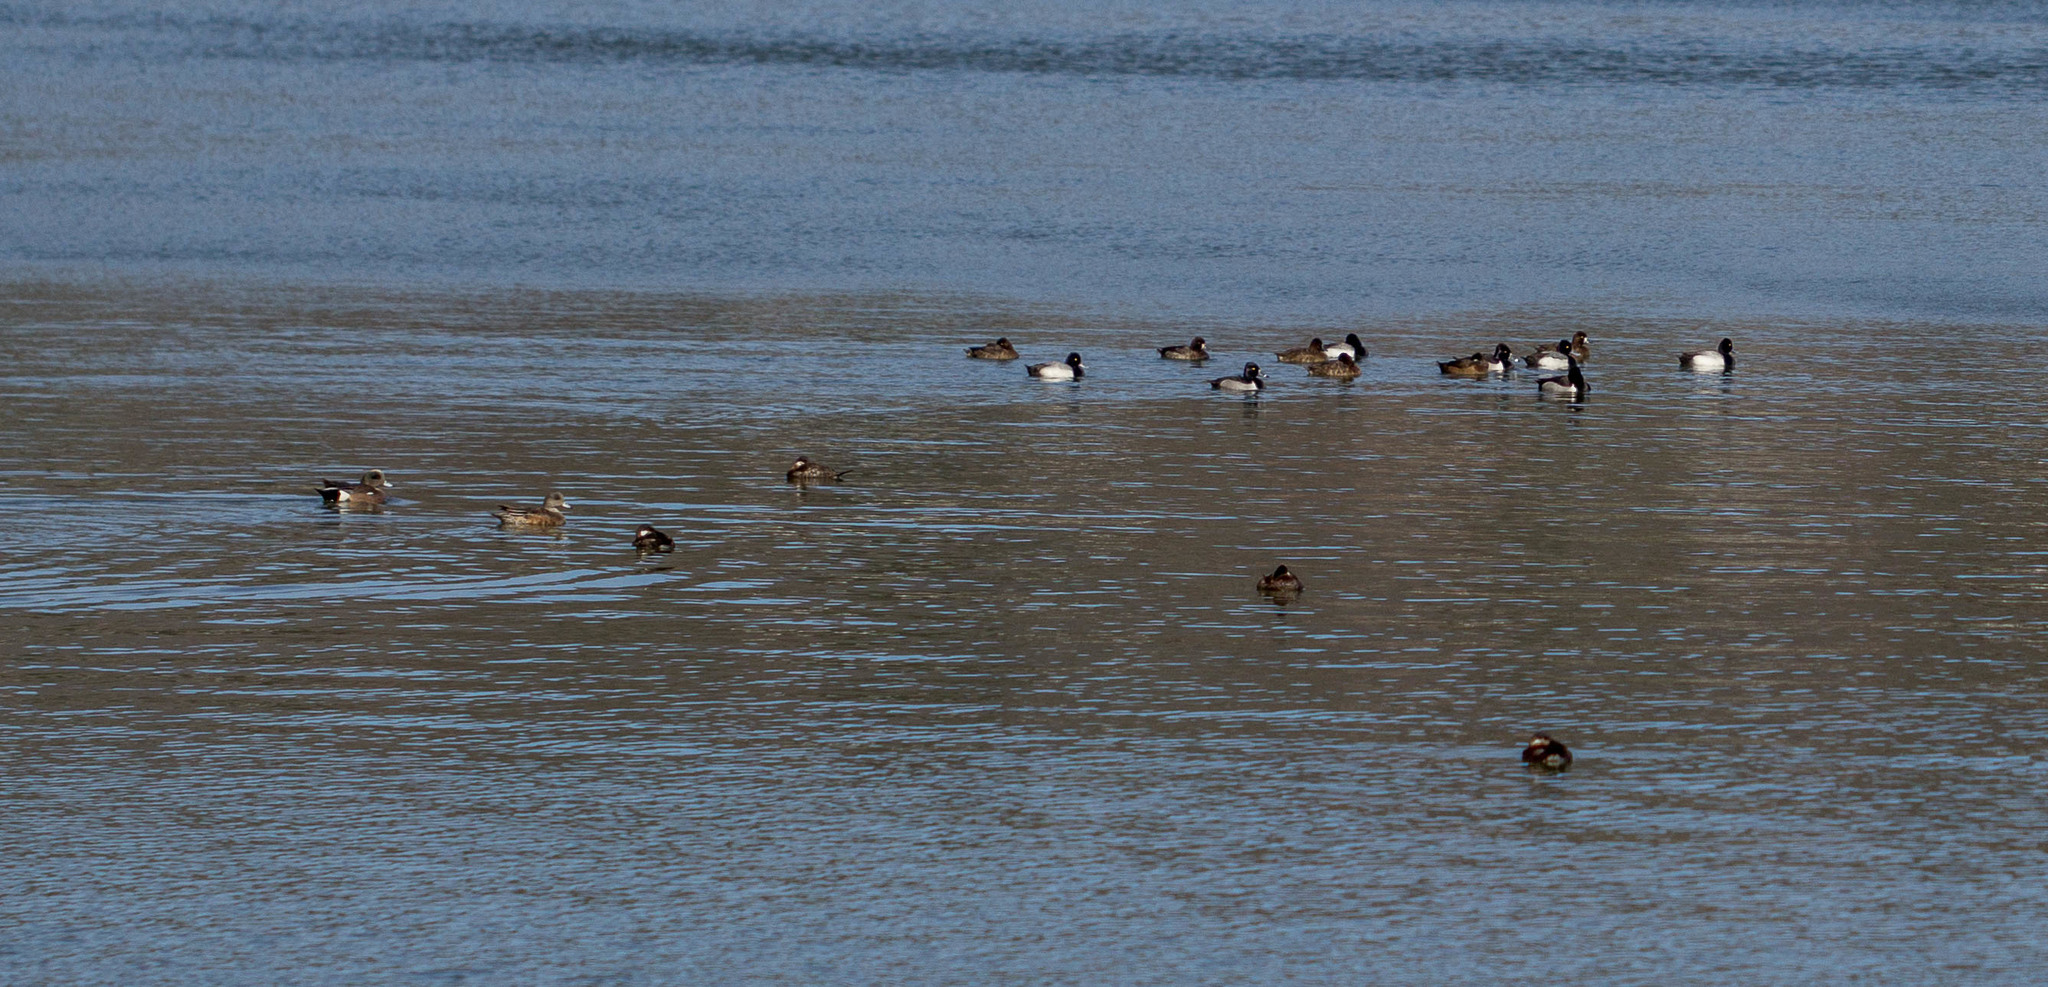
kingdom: Animalia
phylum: Chordata
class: Aves
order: Anseriformes
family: Anatidae
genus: Aythya
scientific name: Aythya affinis
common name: Lesser scaup
